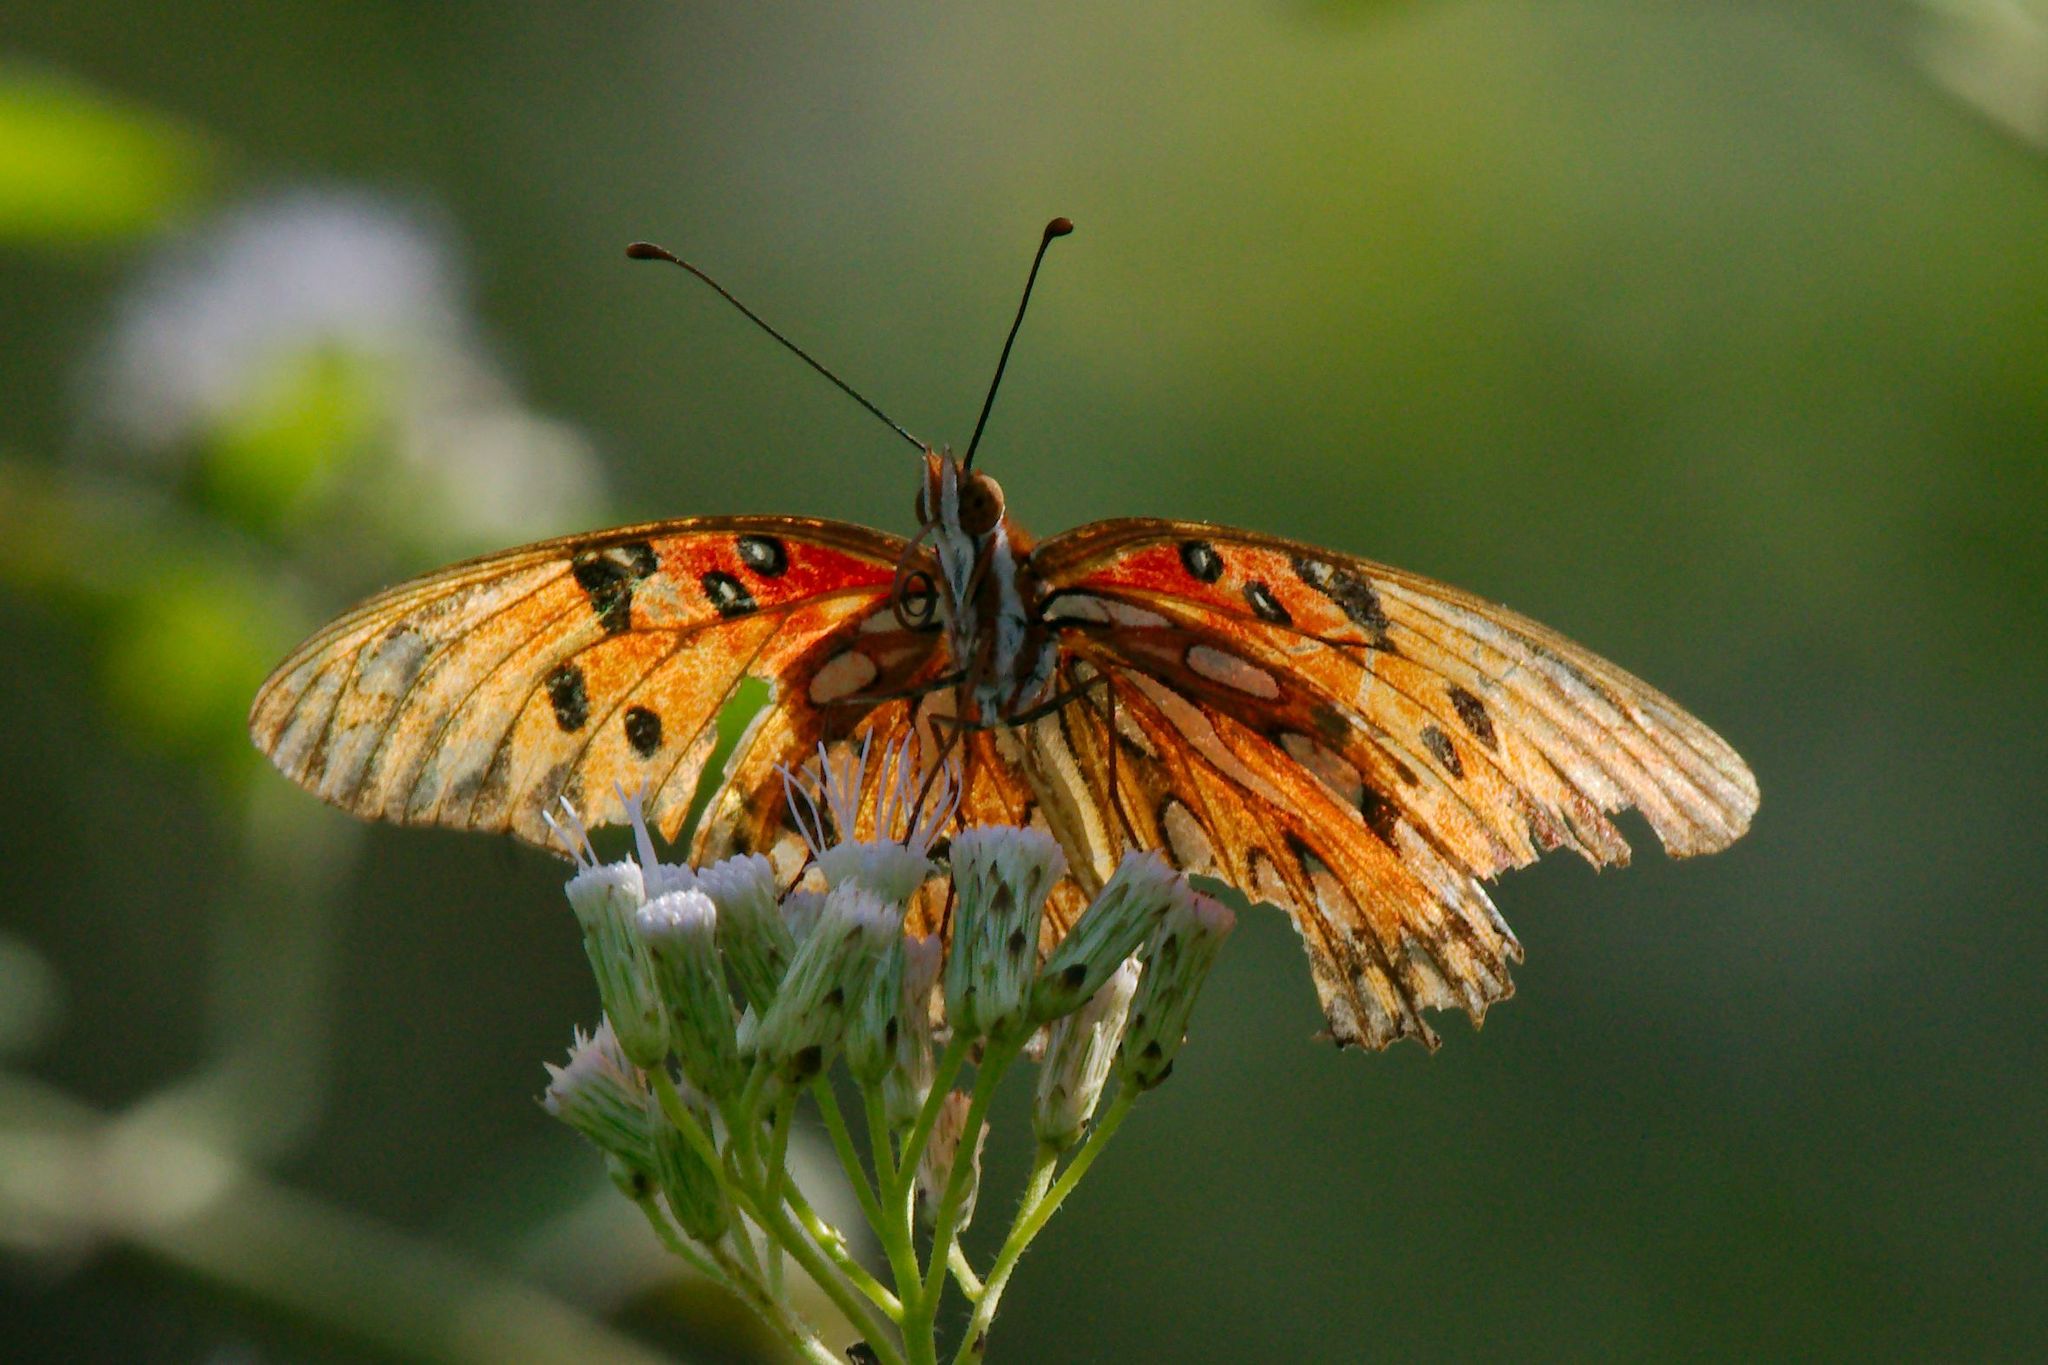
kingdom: Animalia
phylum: Arthropoda
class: Insecta
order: Lepidoptera
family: Nymphalidae
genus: Dione
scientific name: Dione vanillae
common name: Gulf fritillary
